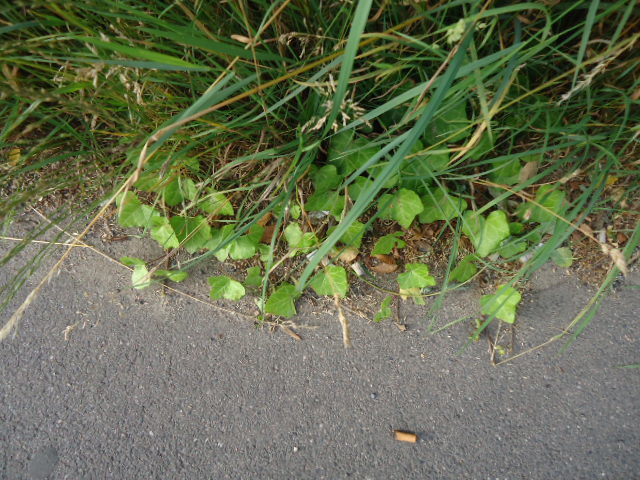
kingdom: Plantae
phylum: Tracheophyta
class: Magnoliopsida
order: Apiales
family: Araliaceae
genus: Hedera
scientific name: Hedera helix
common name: Ivy
